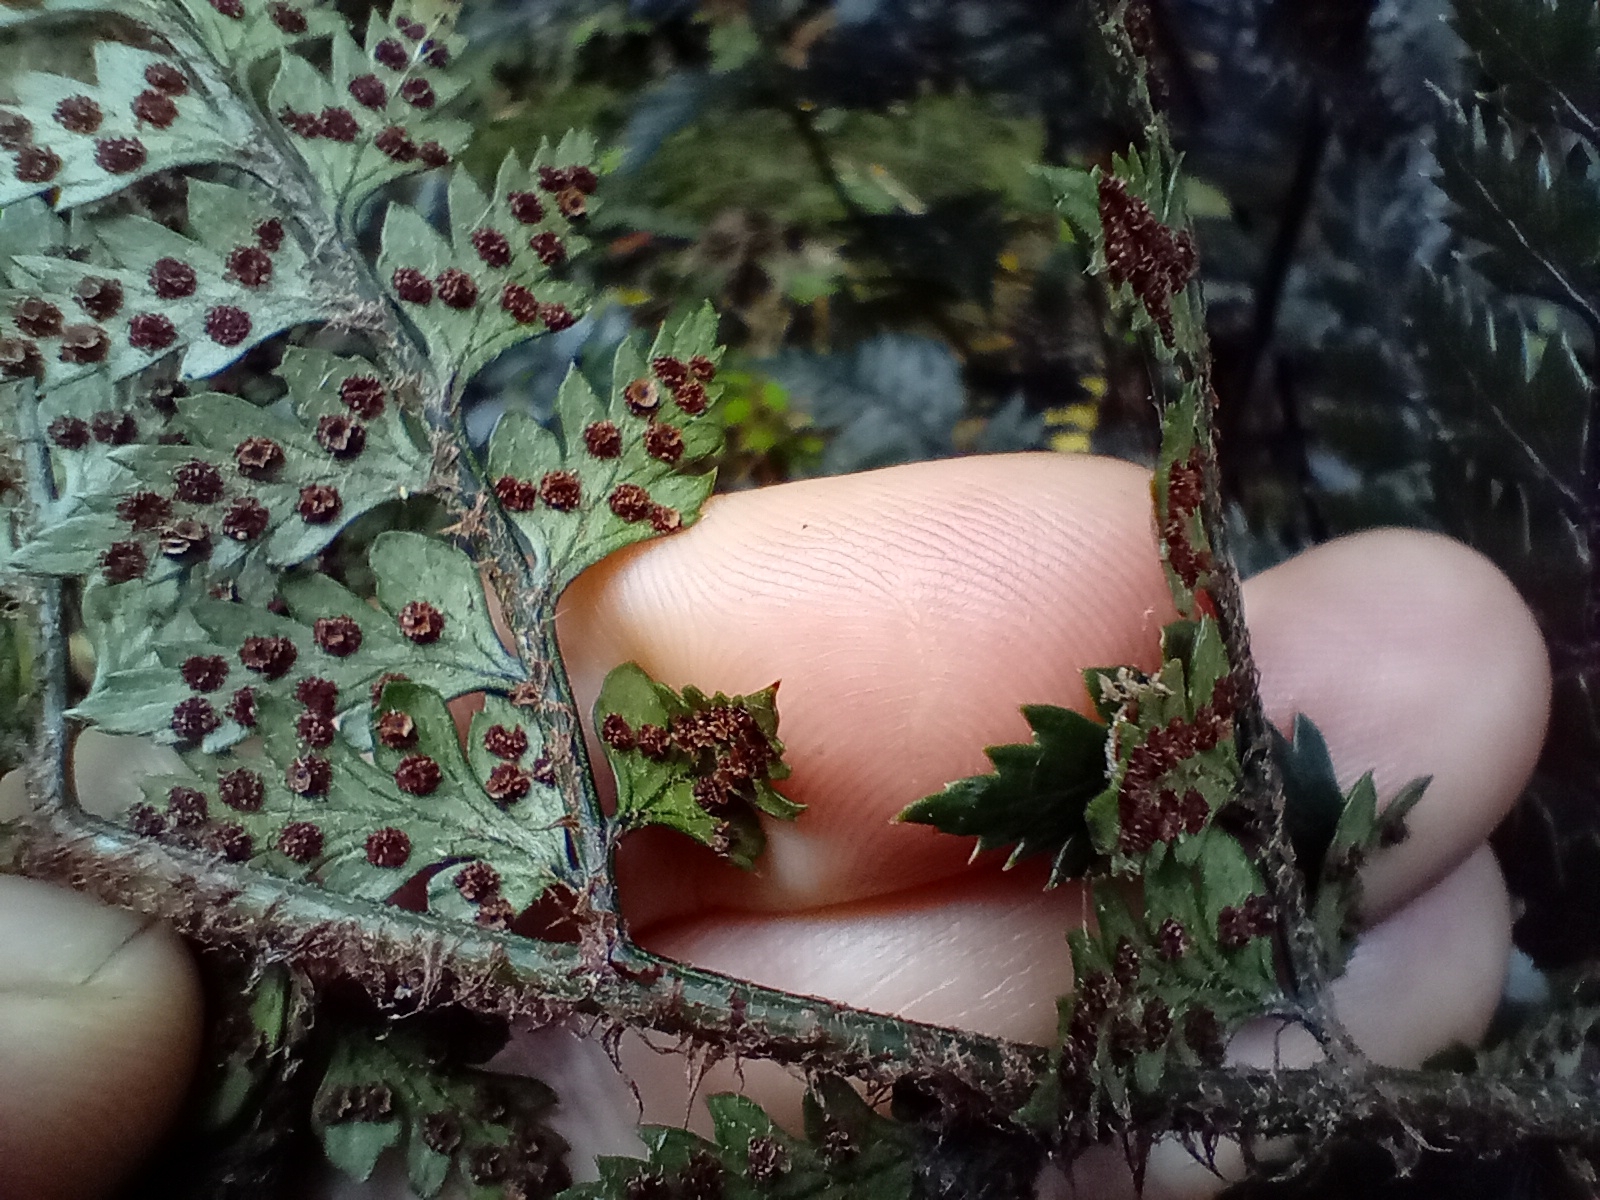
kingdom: Plantae
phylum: Tracheophyta
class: Polypodiopsida
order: Polypodiales
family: Dryopteridaceae
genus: Polystichum
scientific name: Polystichum neozelandicum
